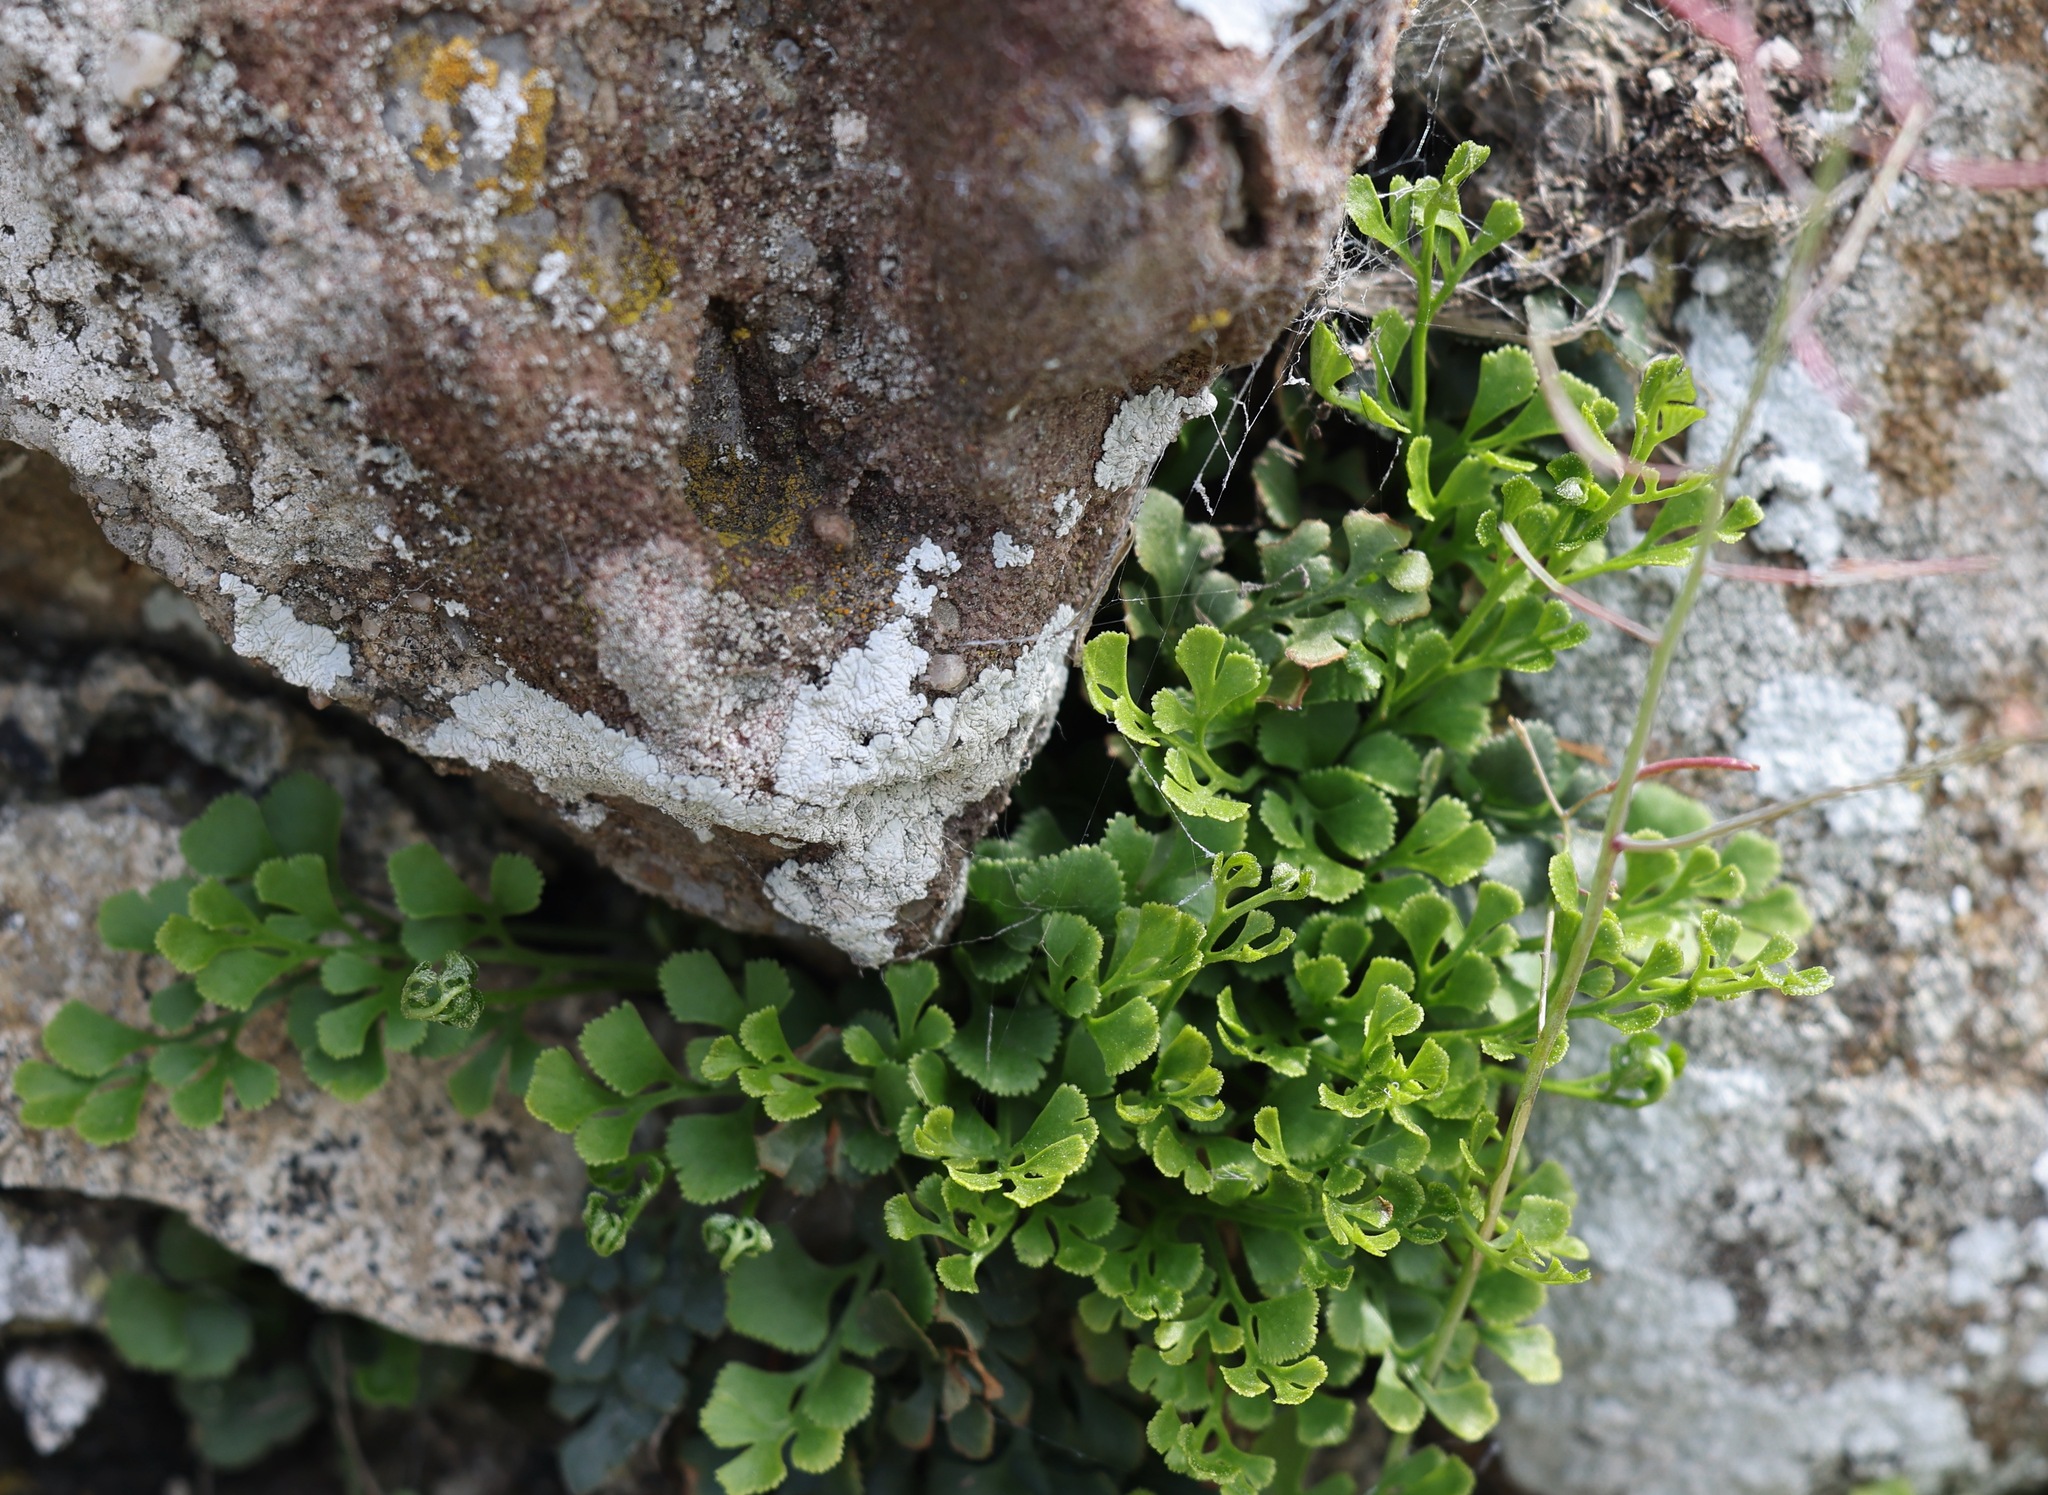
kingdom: Plantae
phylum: Tracheophyta
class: Polypodiopsida
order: Polypodiales
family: Aspleniaceae
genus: Asplenium
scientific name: Asplenium ruta-muraria
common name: Wall-rue
